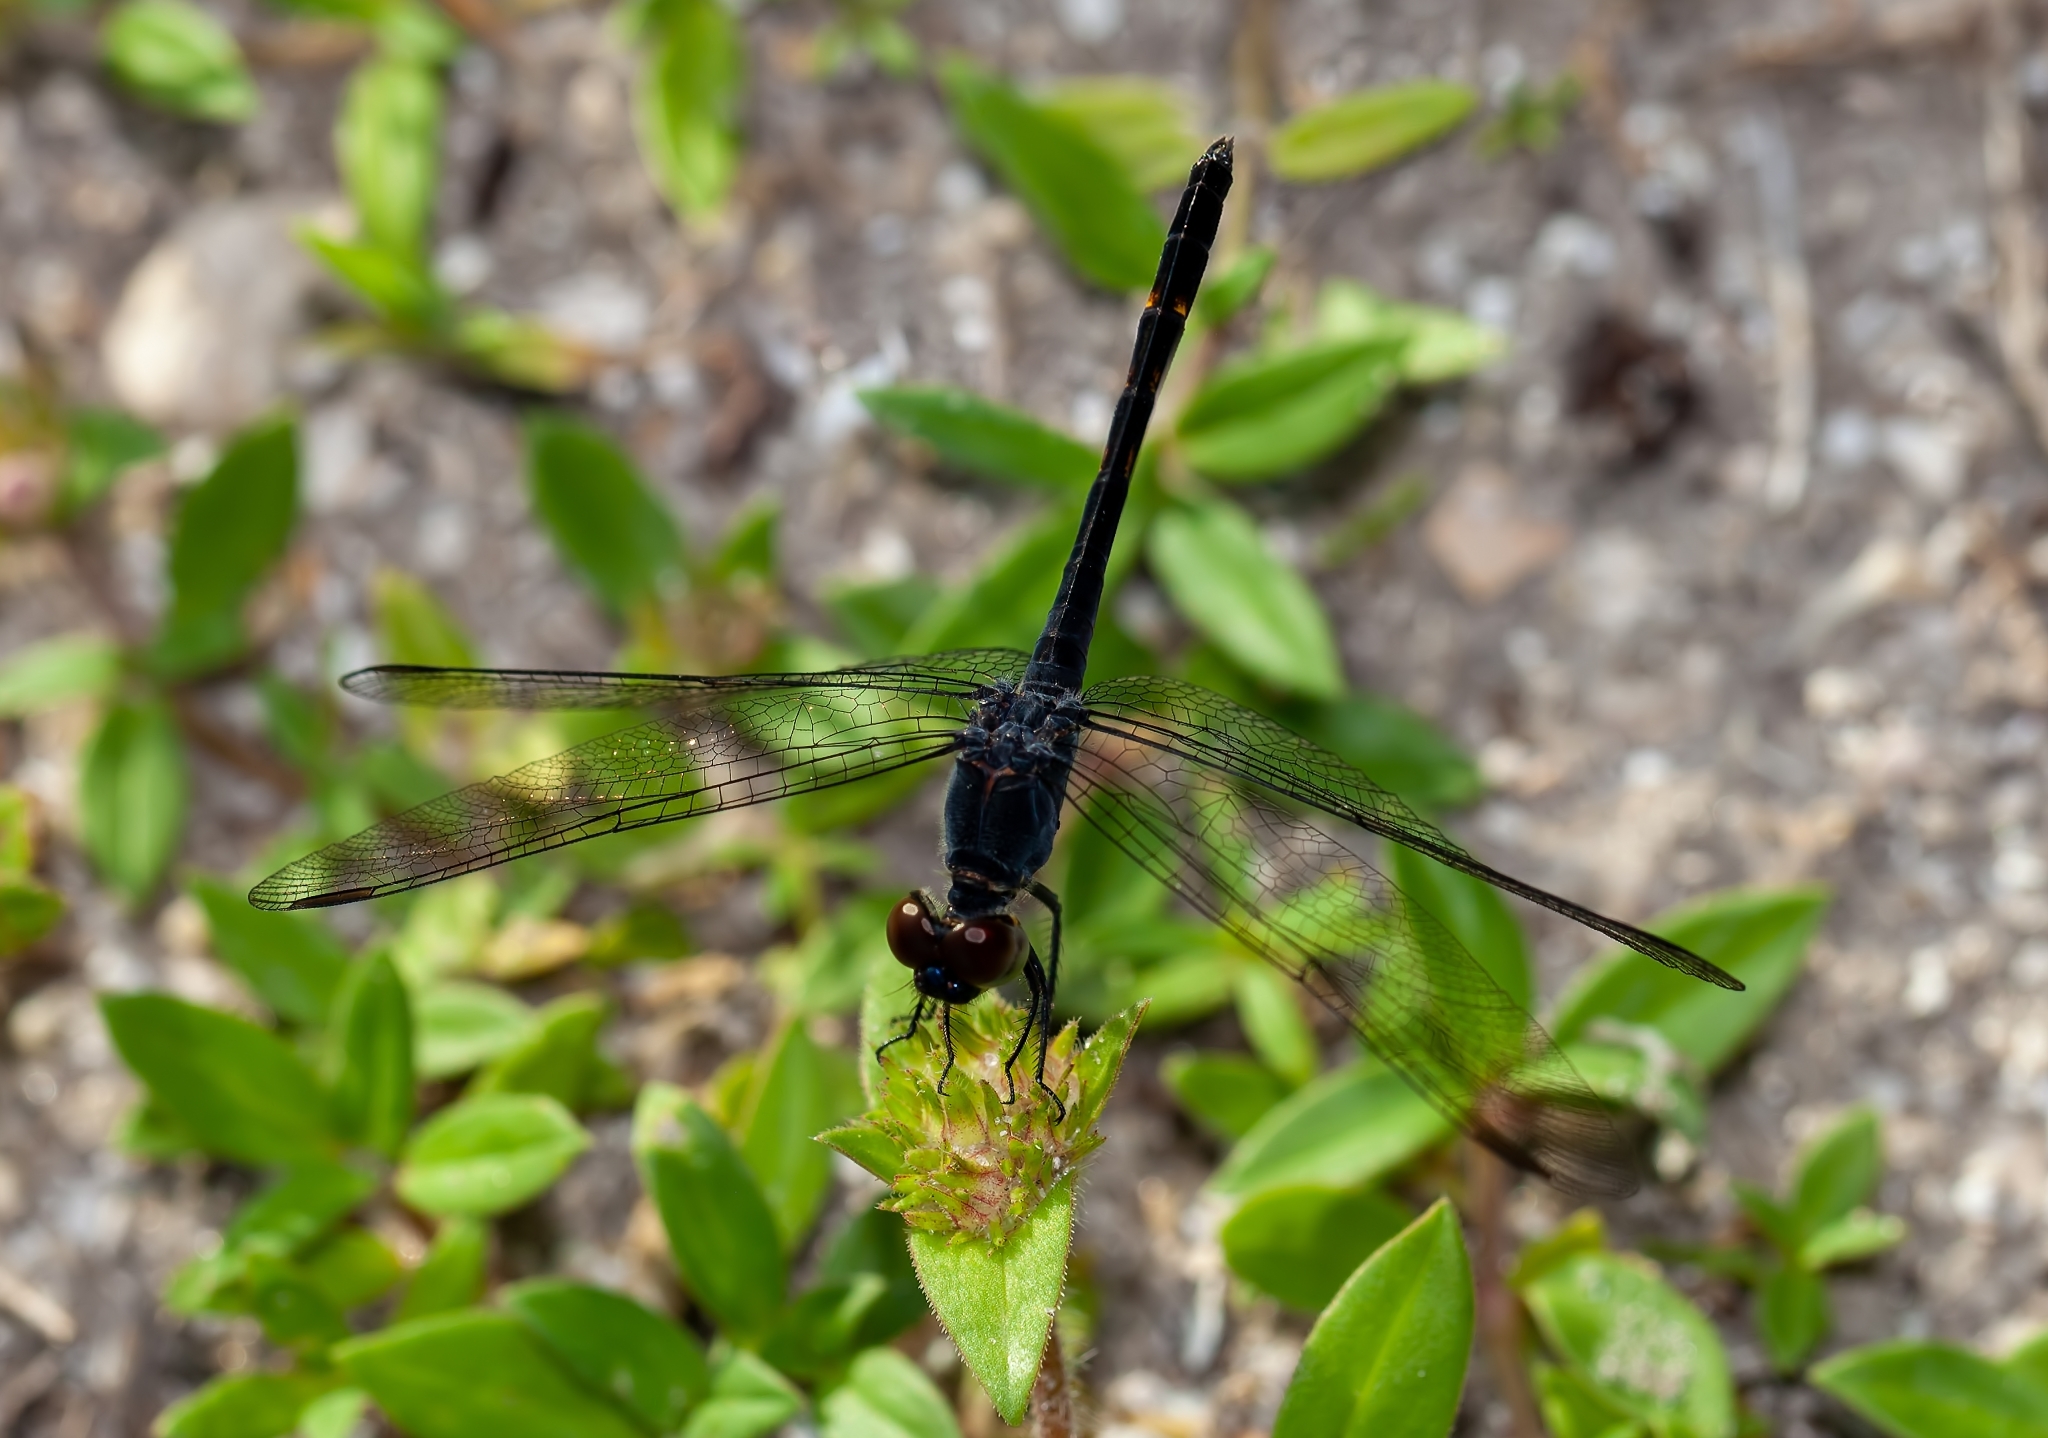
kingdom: Animalia
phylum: Arthropoda
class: Insecta
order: Odonata
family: Libellulidae
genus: Erythrodiplax
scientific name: Erythrodiplax berenice
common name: Seaside dragonlet
